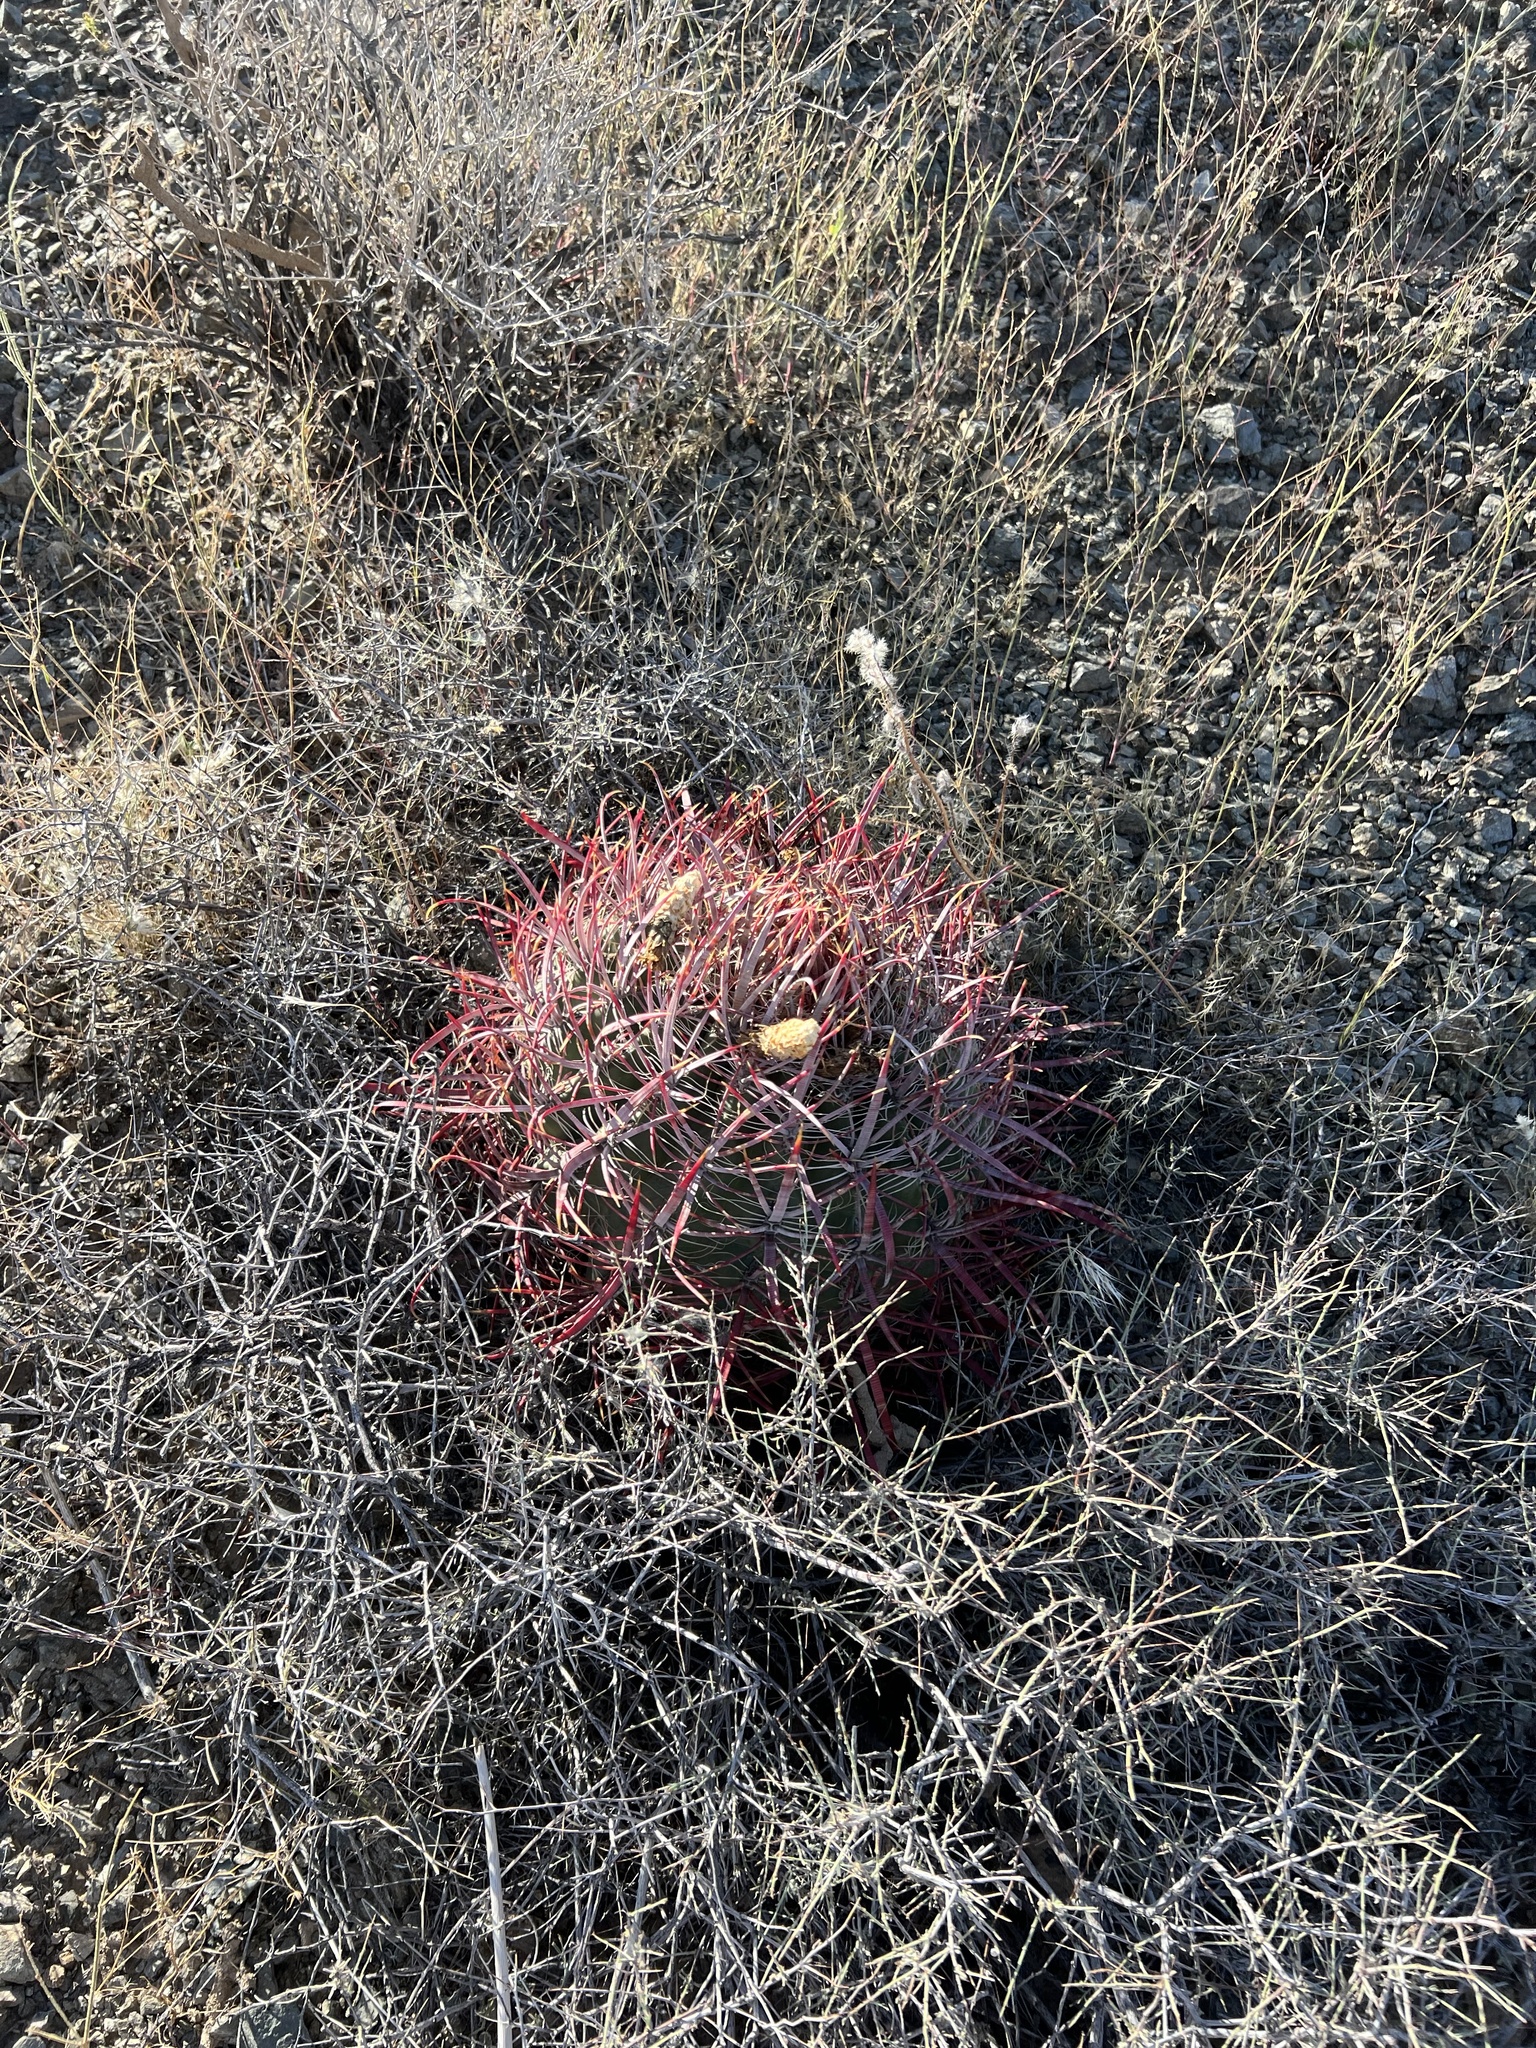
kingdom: Plantae
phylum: Tracheophyta
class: Magnoliopsida
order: Caryophyllales
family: Cactaceae
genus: Ferocactus
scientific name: Ferocactus cylindraceus
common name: California barrel cactus
